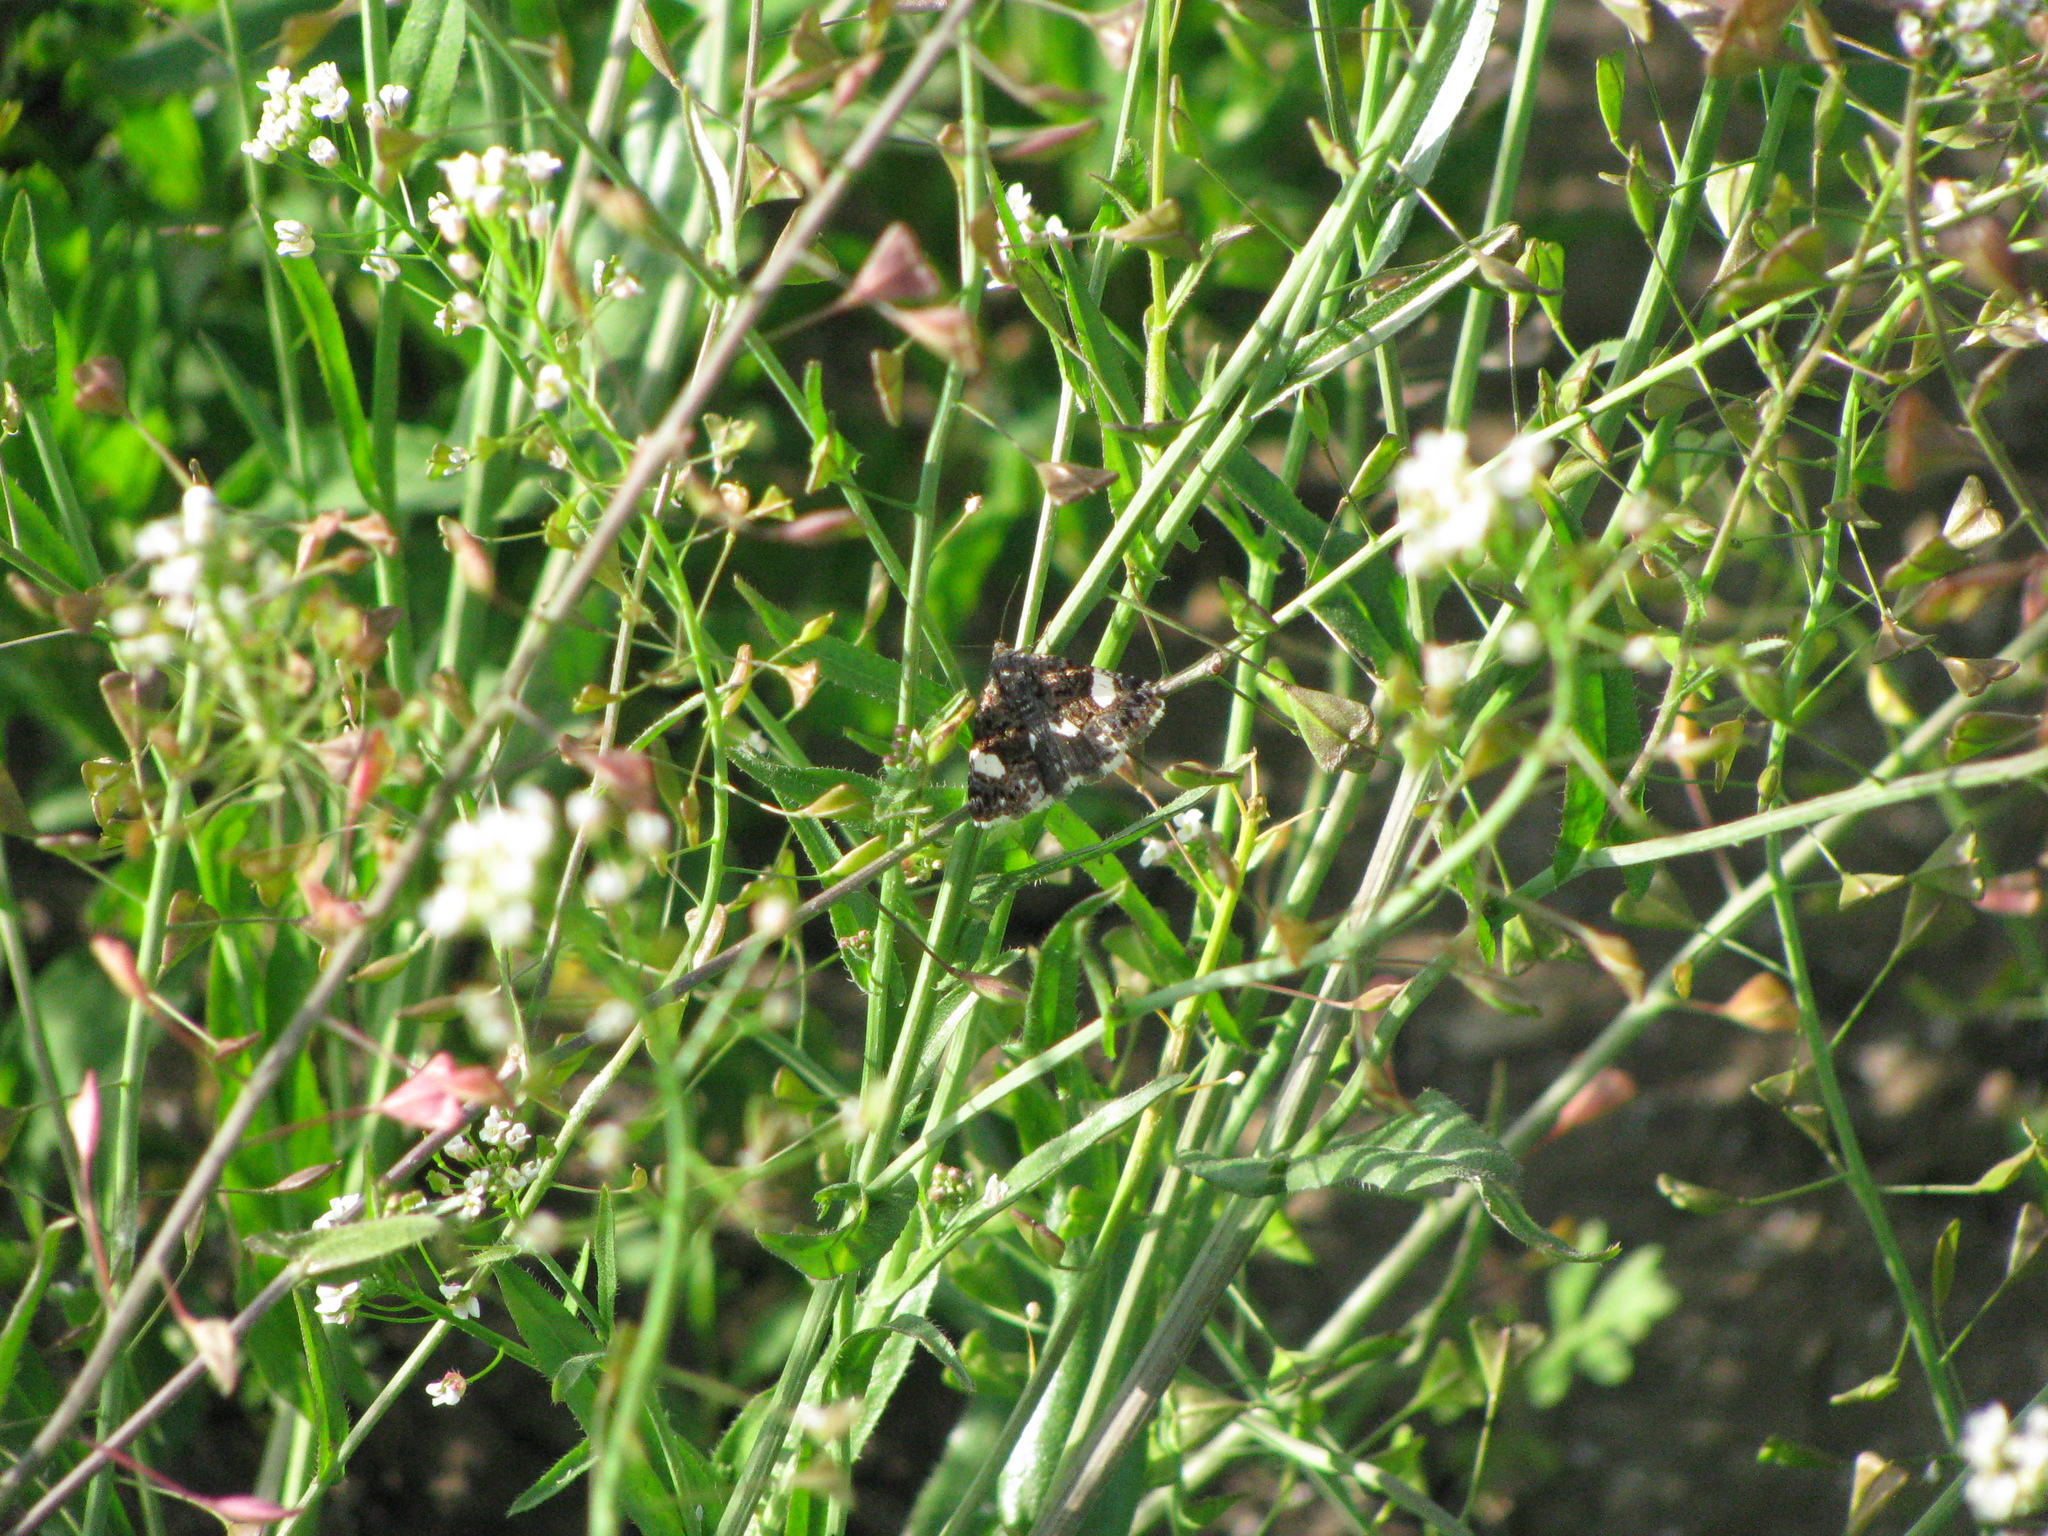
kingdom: Animalia
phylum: Arthropoda
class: Insecta
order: Lepidoptera
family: Erebidae
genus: Tyta
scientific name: Tyta luctuosa
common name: Four-spotted
